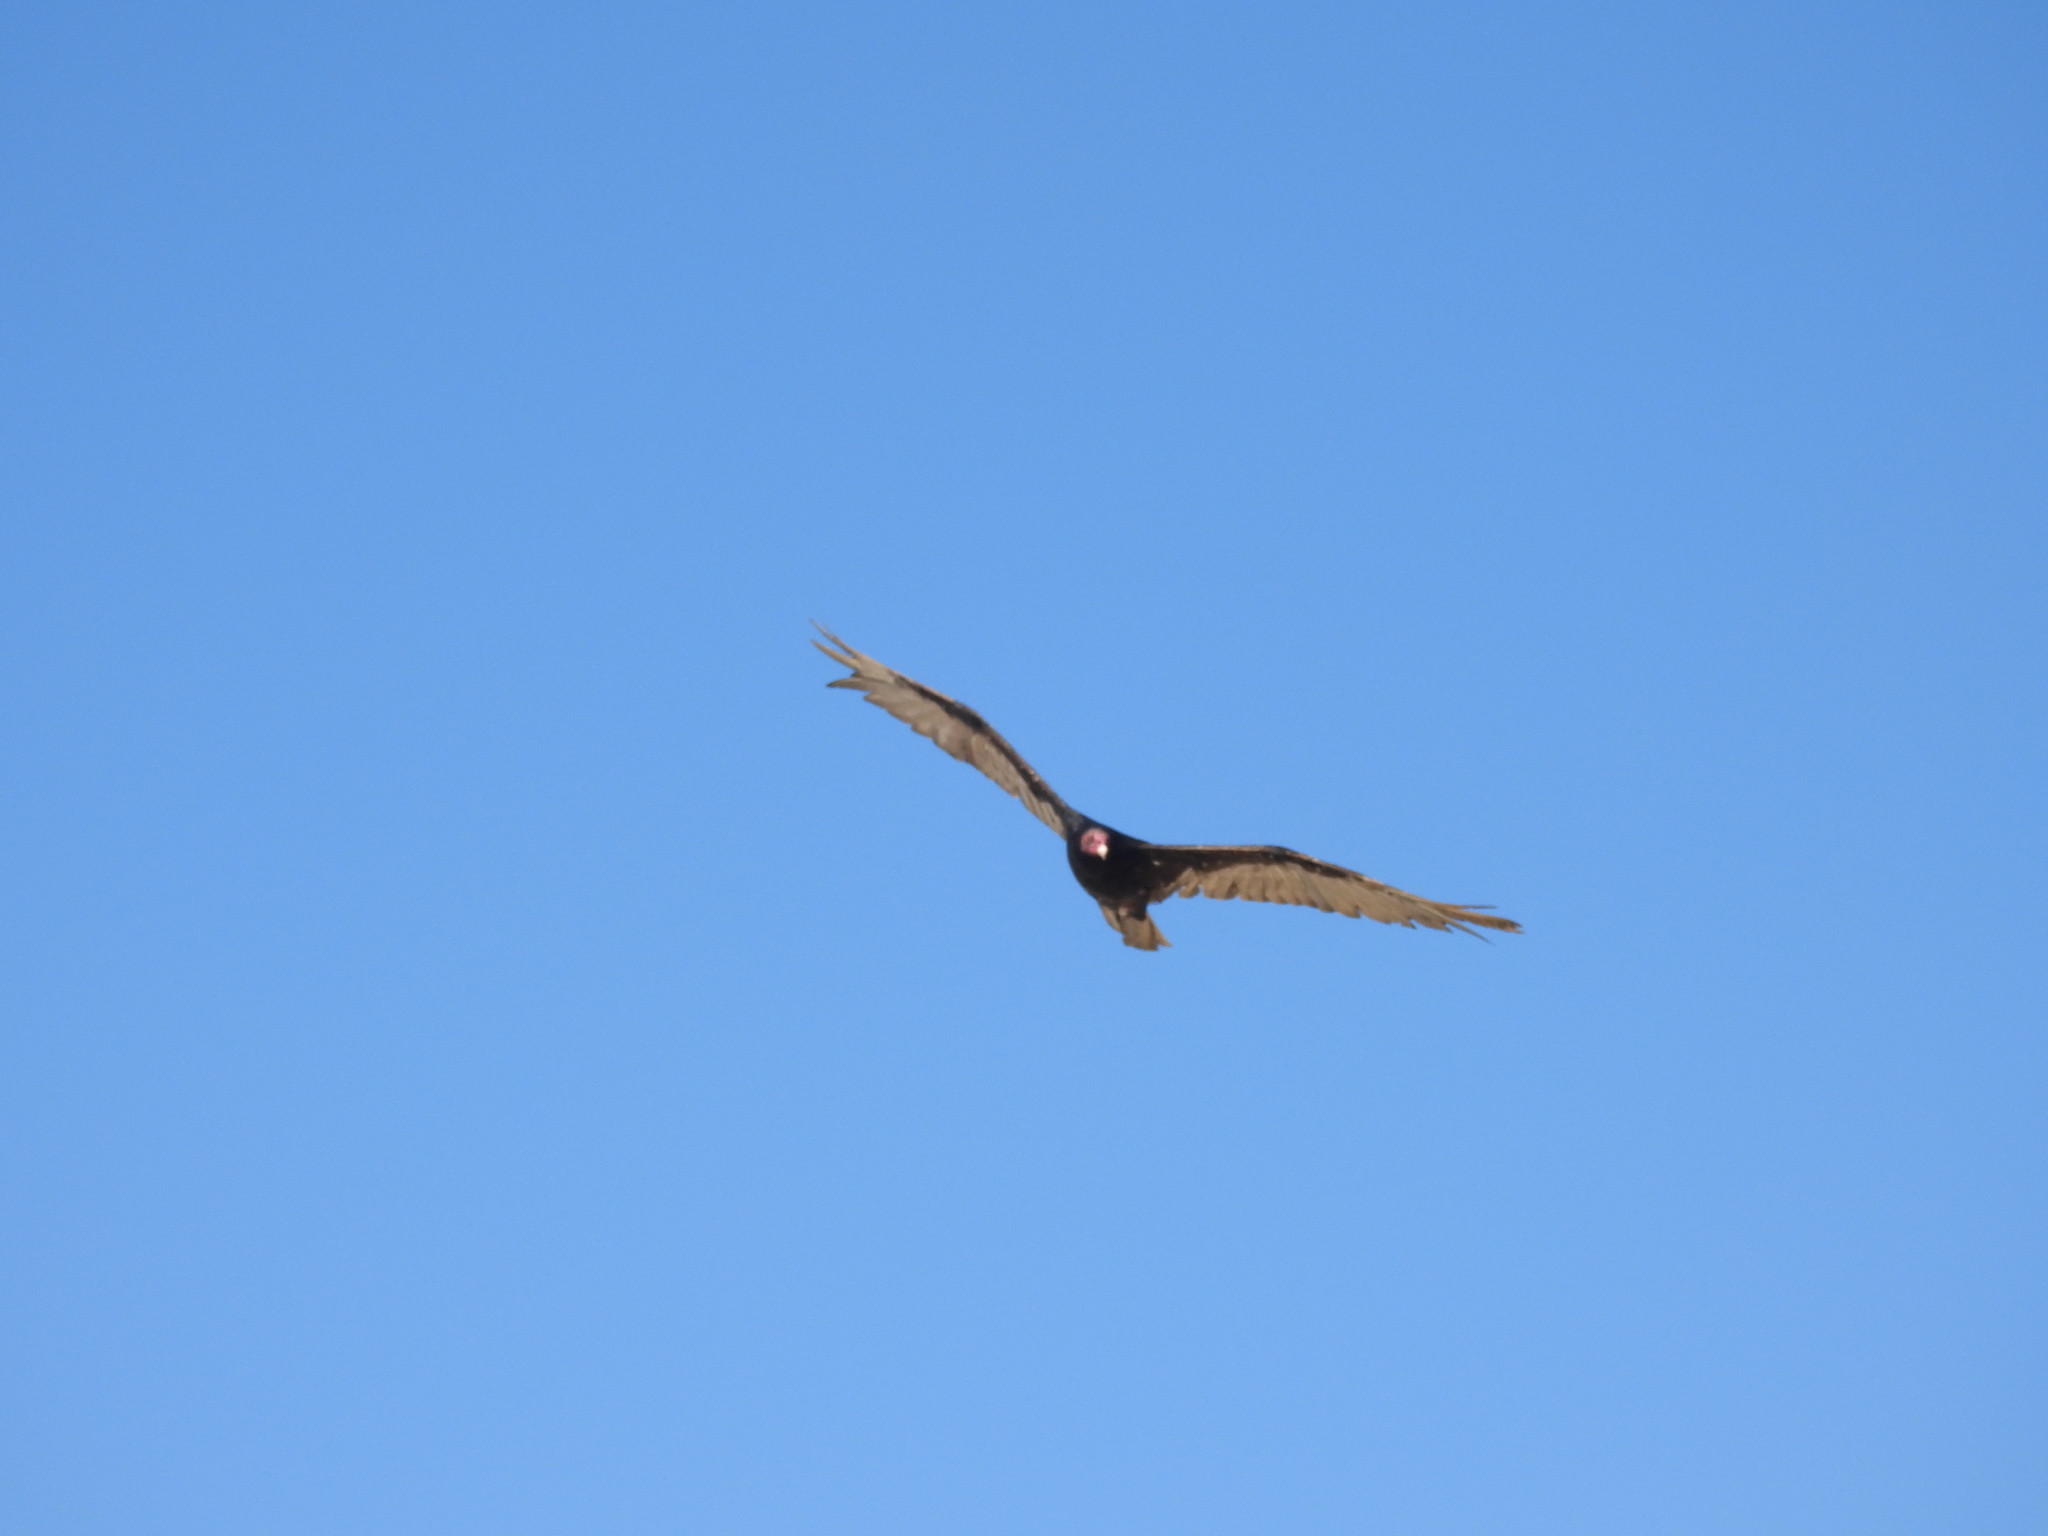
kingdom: Animalia
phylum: Chordata
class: Aves
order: Accipitriformes
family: Cathartidae
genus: Cathartes
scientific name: Cathartes aura
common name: Turkey vulture
